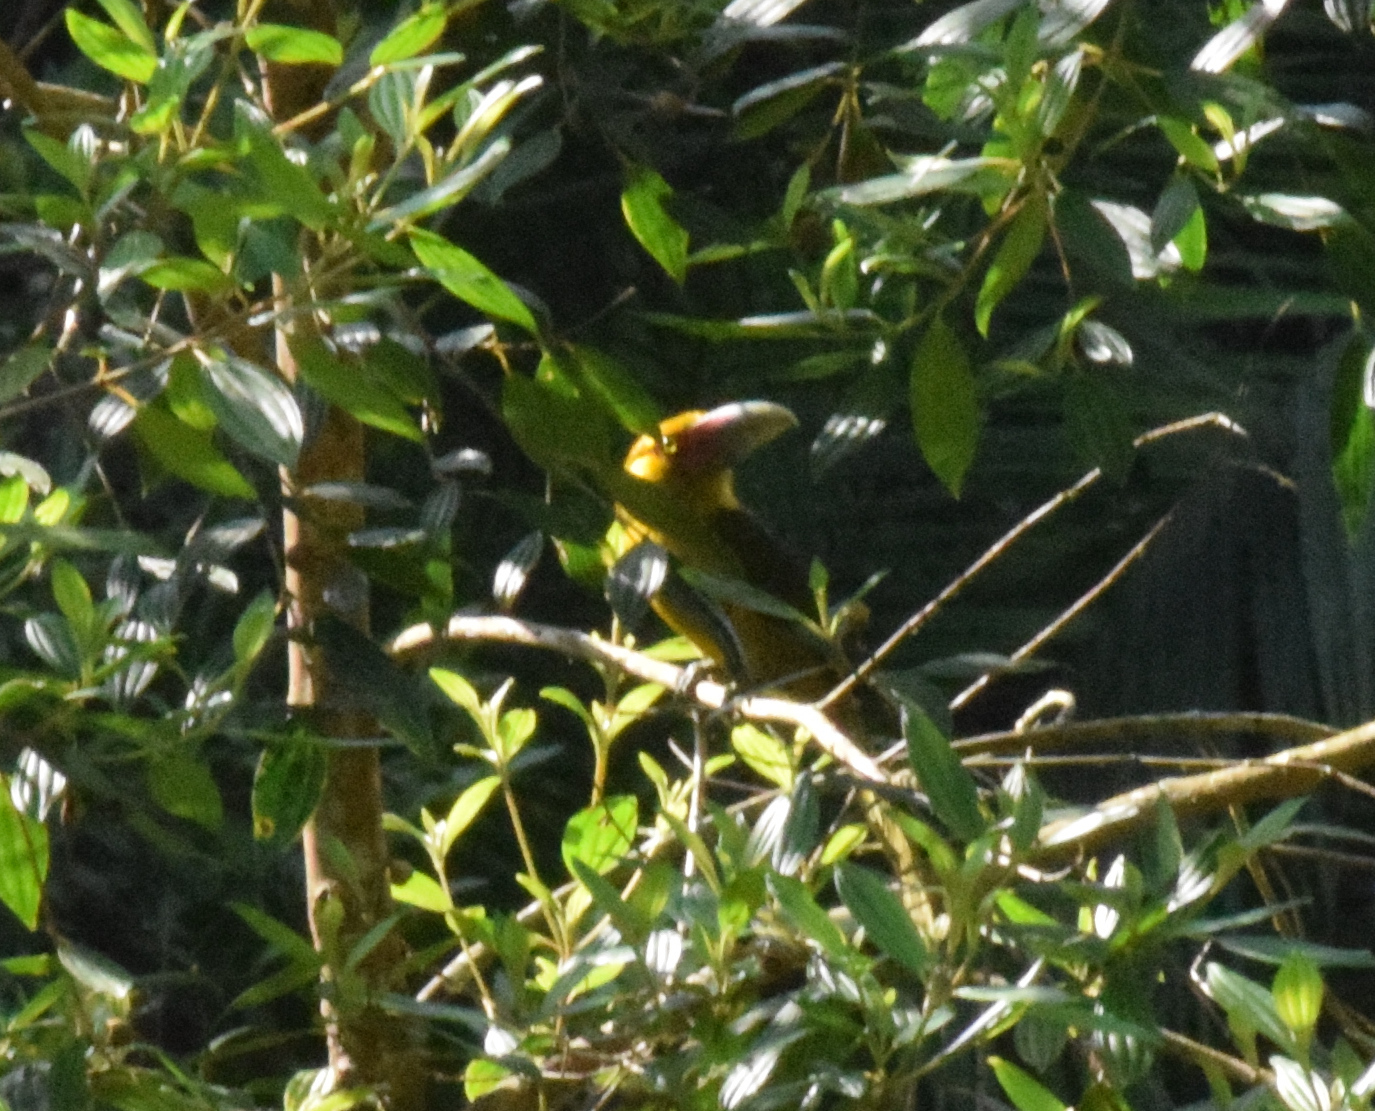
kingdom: Animalia
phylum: Chordata
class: Aves
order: Piciformes
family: Ramphastidae
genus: Pteroglossus
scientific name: Pteroglossus bailloni
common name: Saffron toucanet
